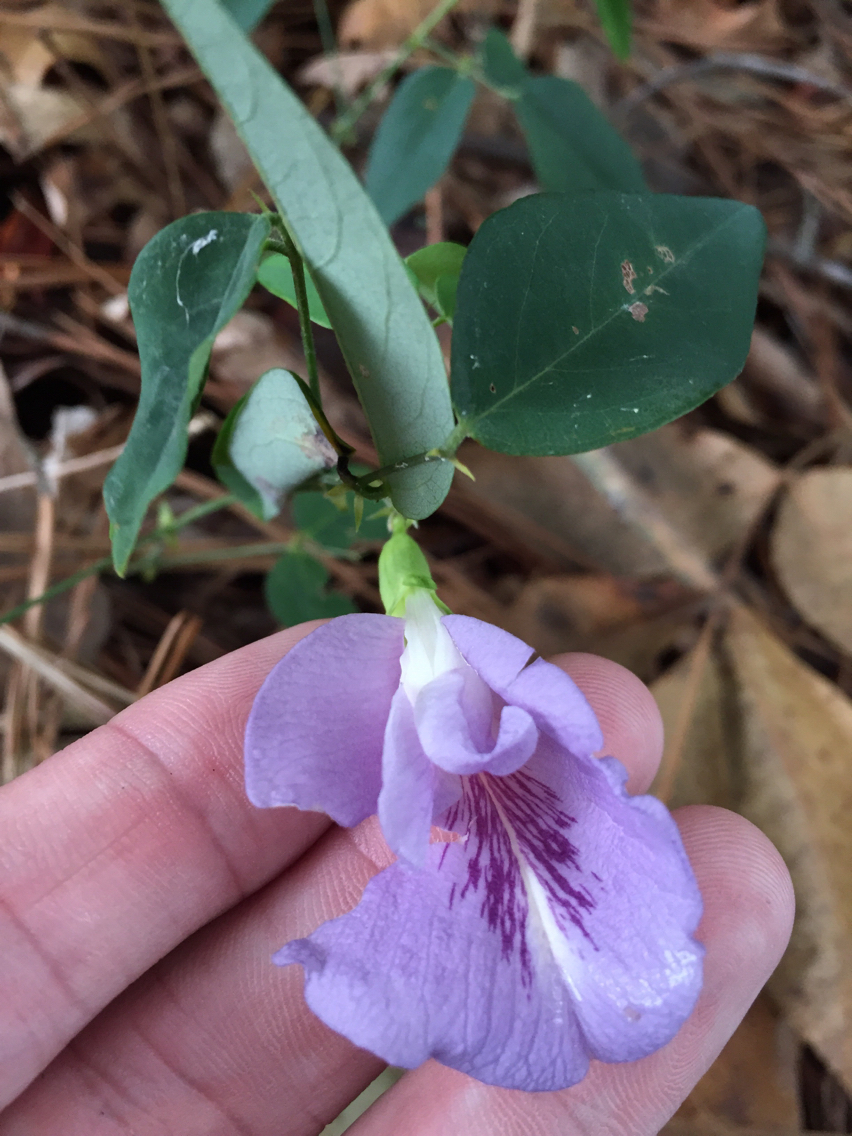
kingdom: Plantae
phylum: Tracheophyta
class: Magnoliopsida
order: Fabales
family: Fabaceae
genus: Clitoria
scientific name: Clitoria mariana
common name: Butterfly-pea
